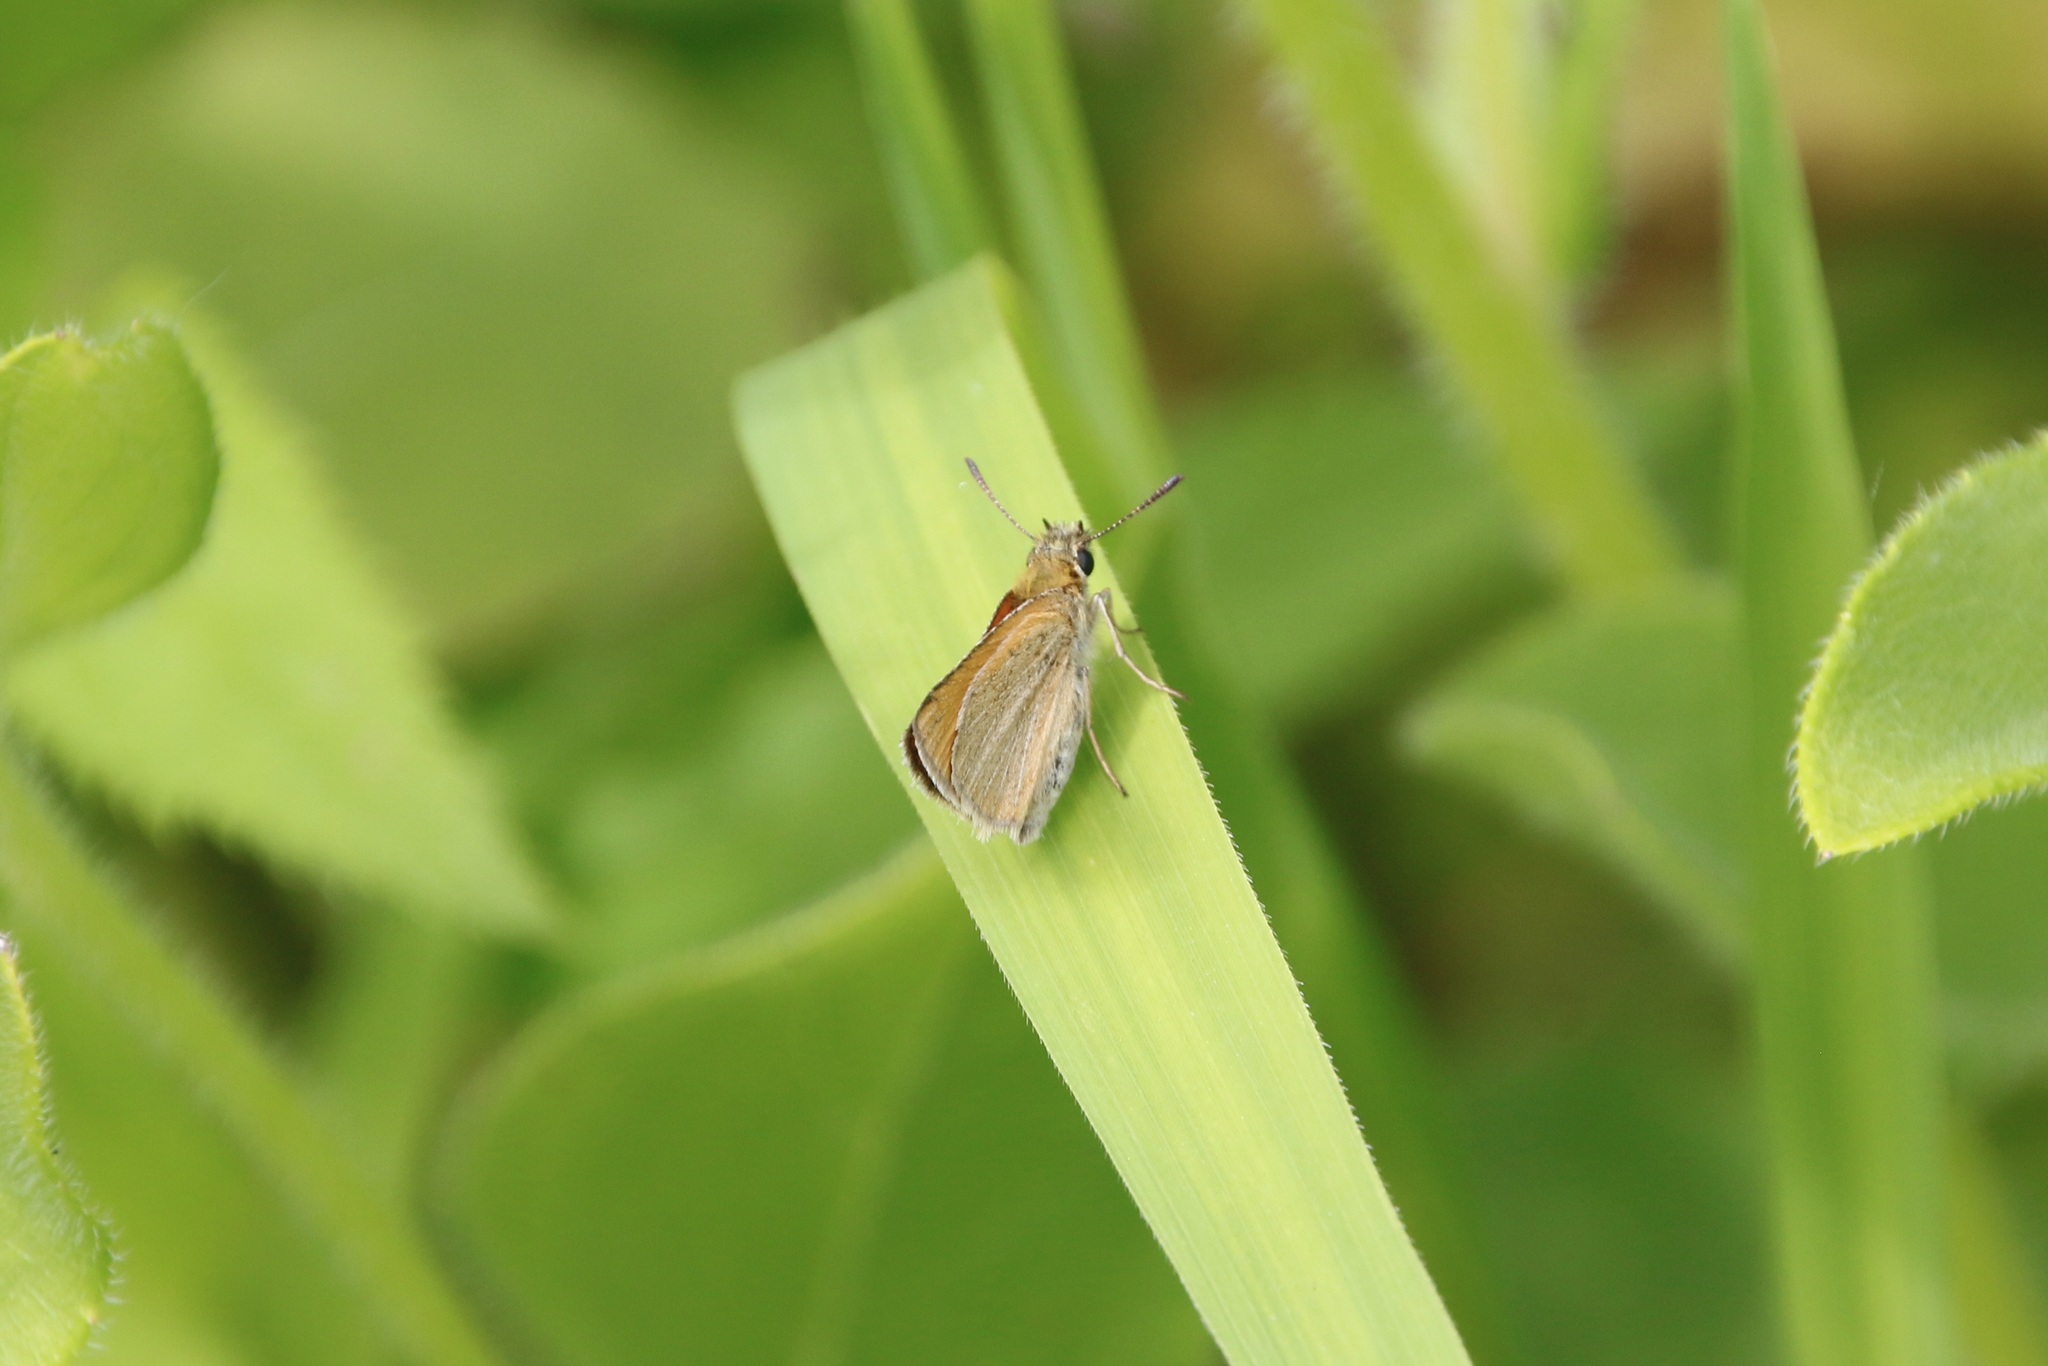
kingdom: Animalia
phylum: Arthropoda
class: Insecta
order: Lepidoptera
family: Hesperiidae
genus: Thymelicus
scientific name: Thymelicus lineola
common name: Essex skipper
